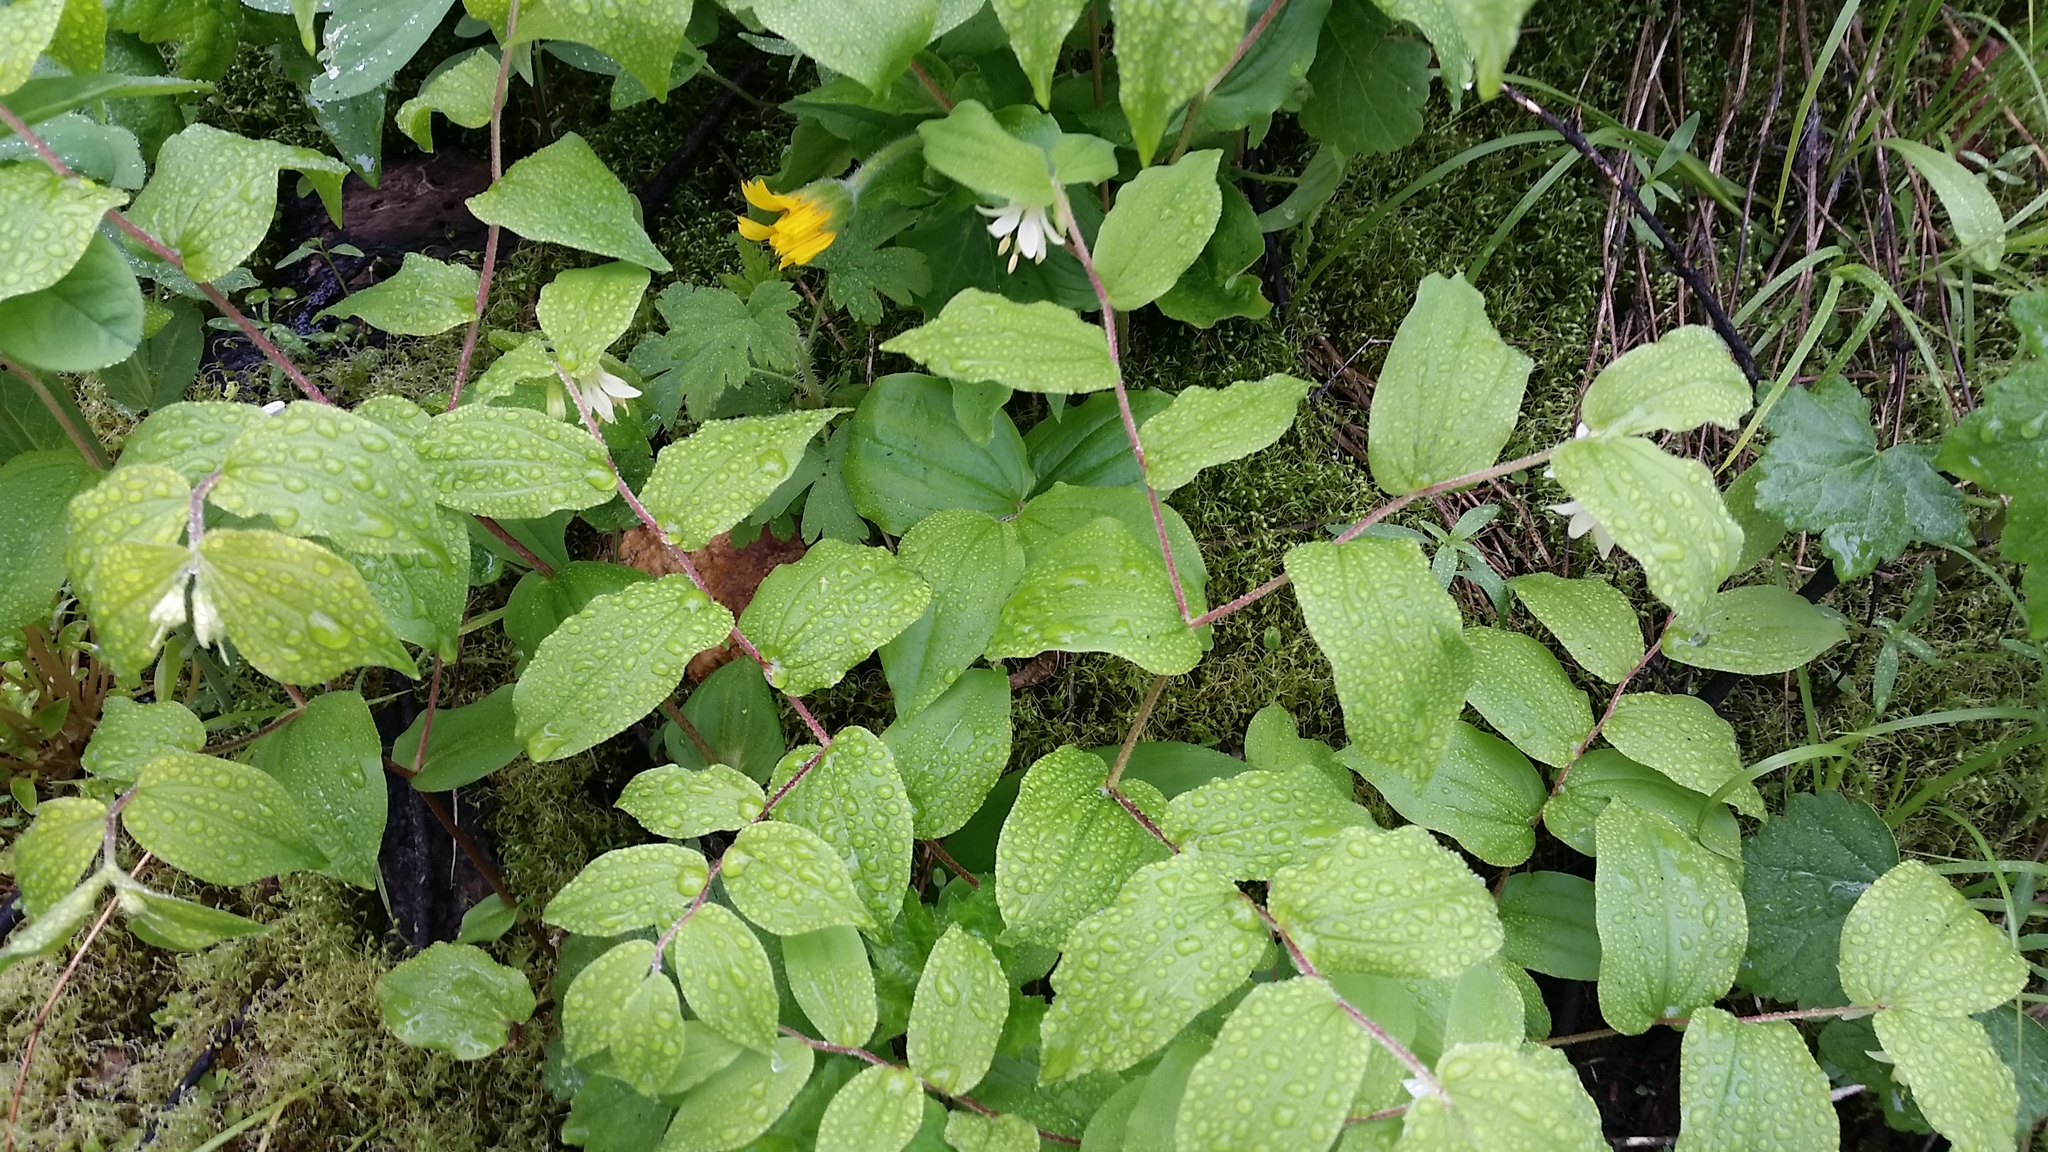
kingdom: Plantae
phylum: Tracheophyta
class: Liliopsida
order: Liliales
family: Liliaceae
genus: Prosartes
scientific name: Prosartes hookeri
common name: Fairy-bells
